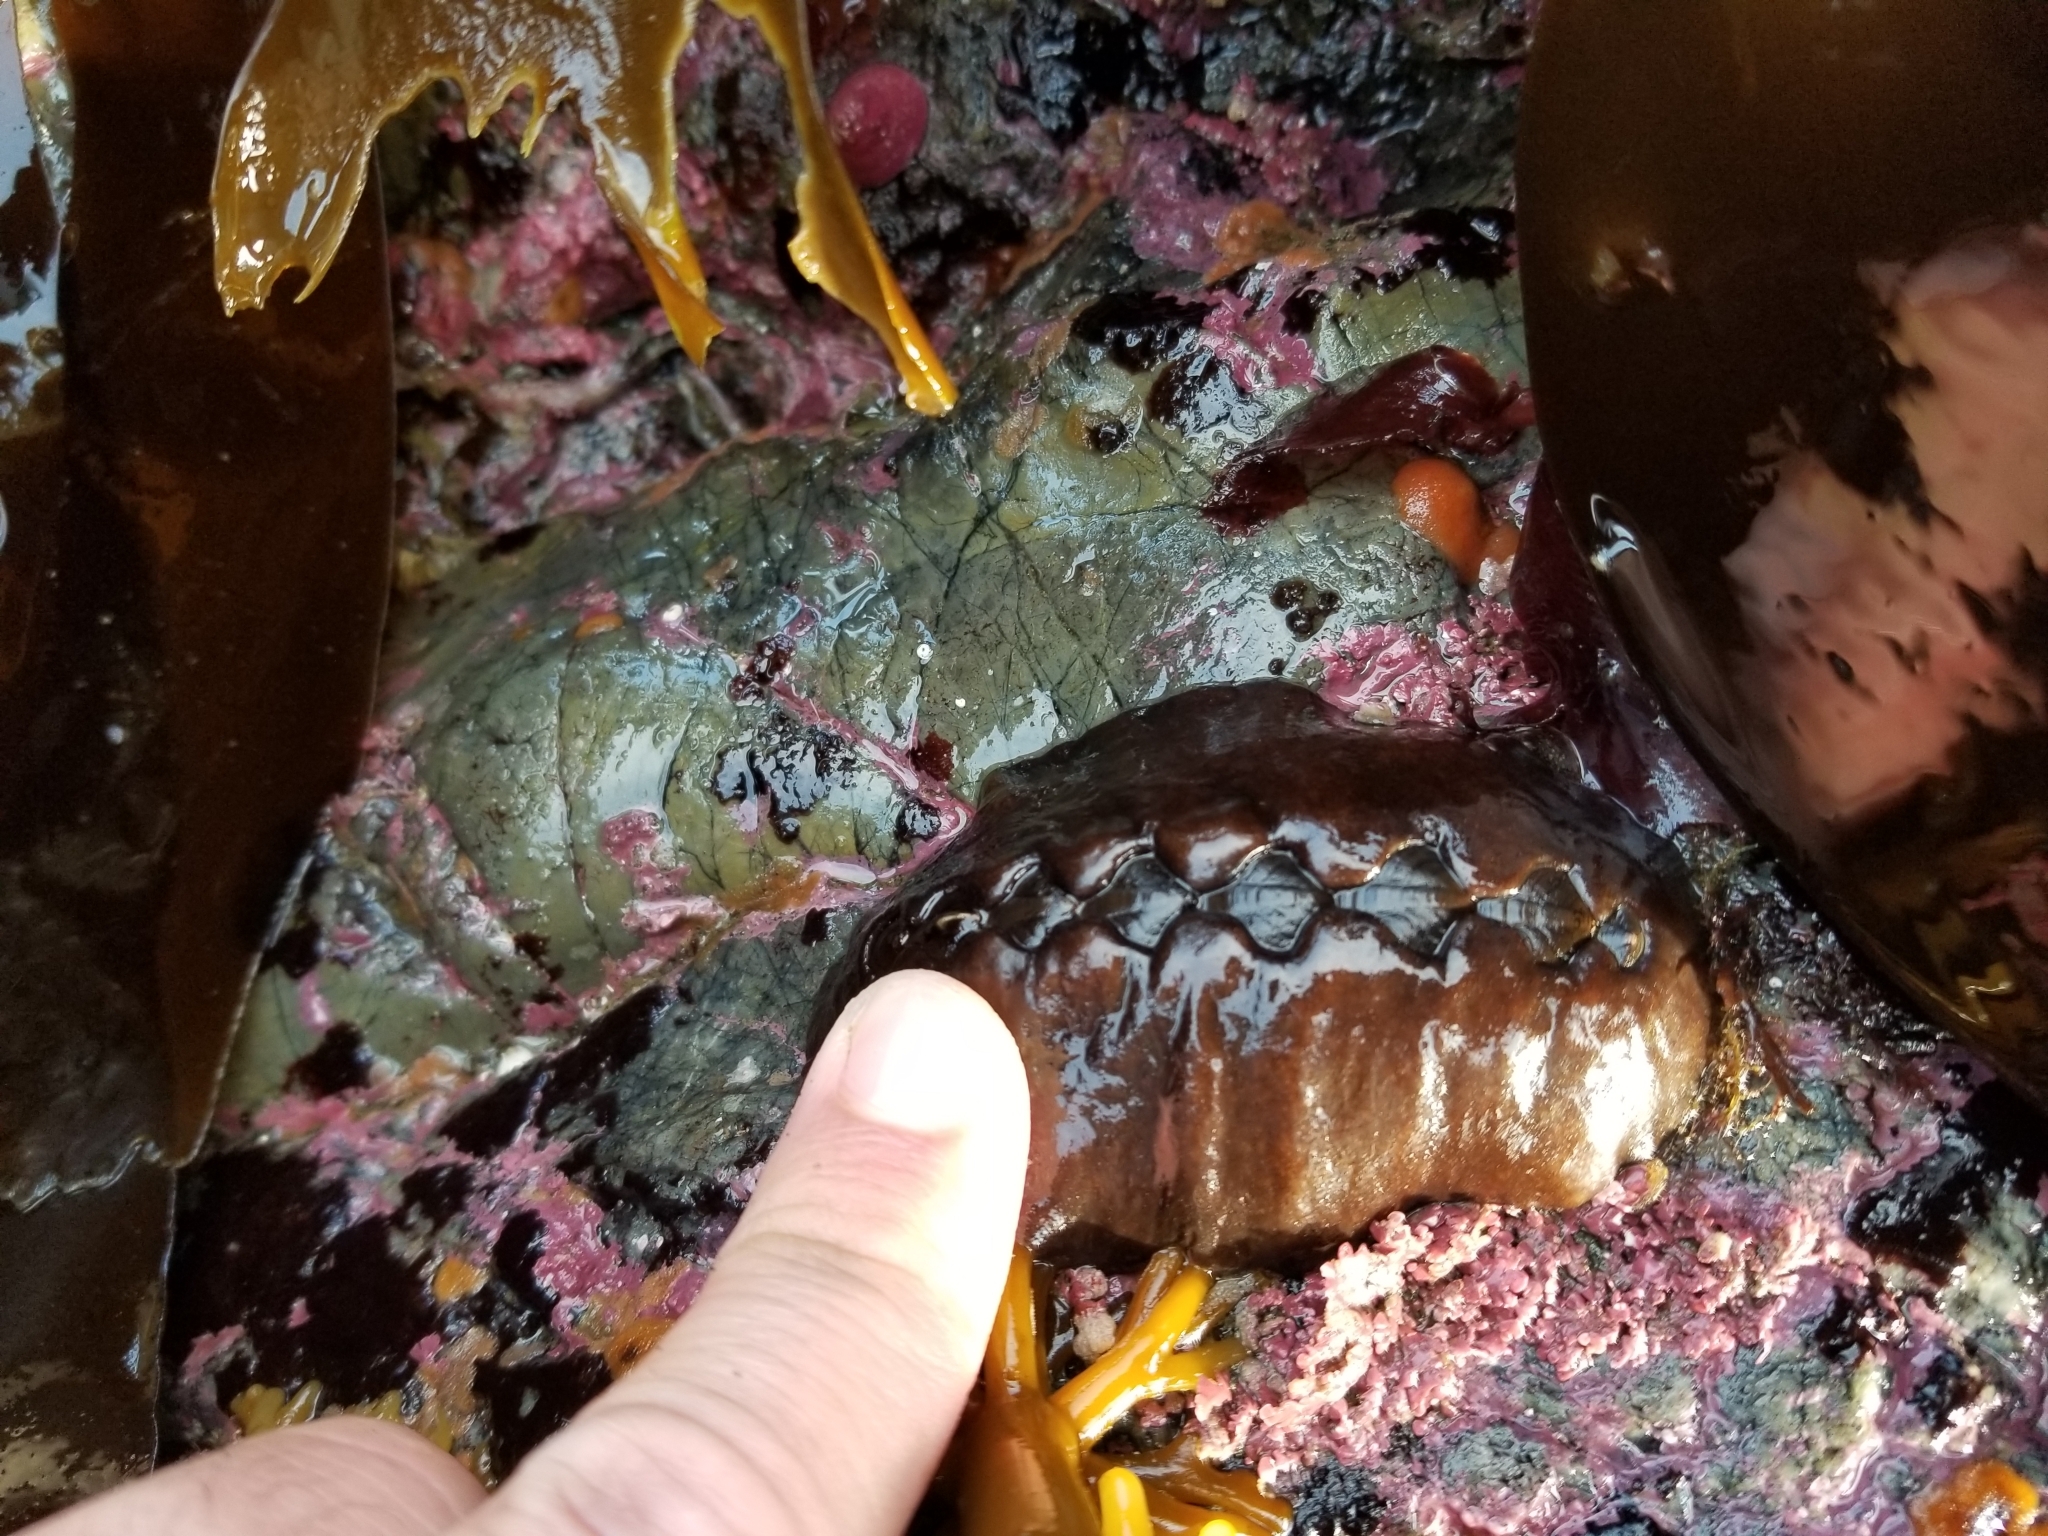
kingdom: Animalia
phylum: Mollusca
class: Polyplacophora
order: Chitonida
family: Mopaliidae
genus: Katharina
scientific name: Katharina tunicata
